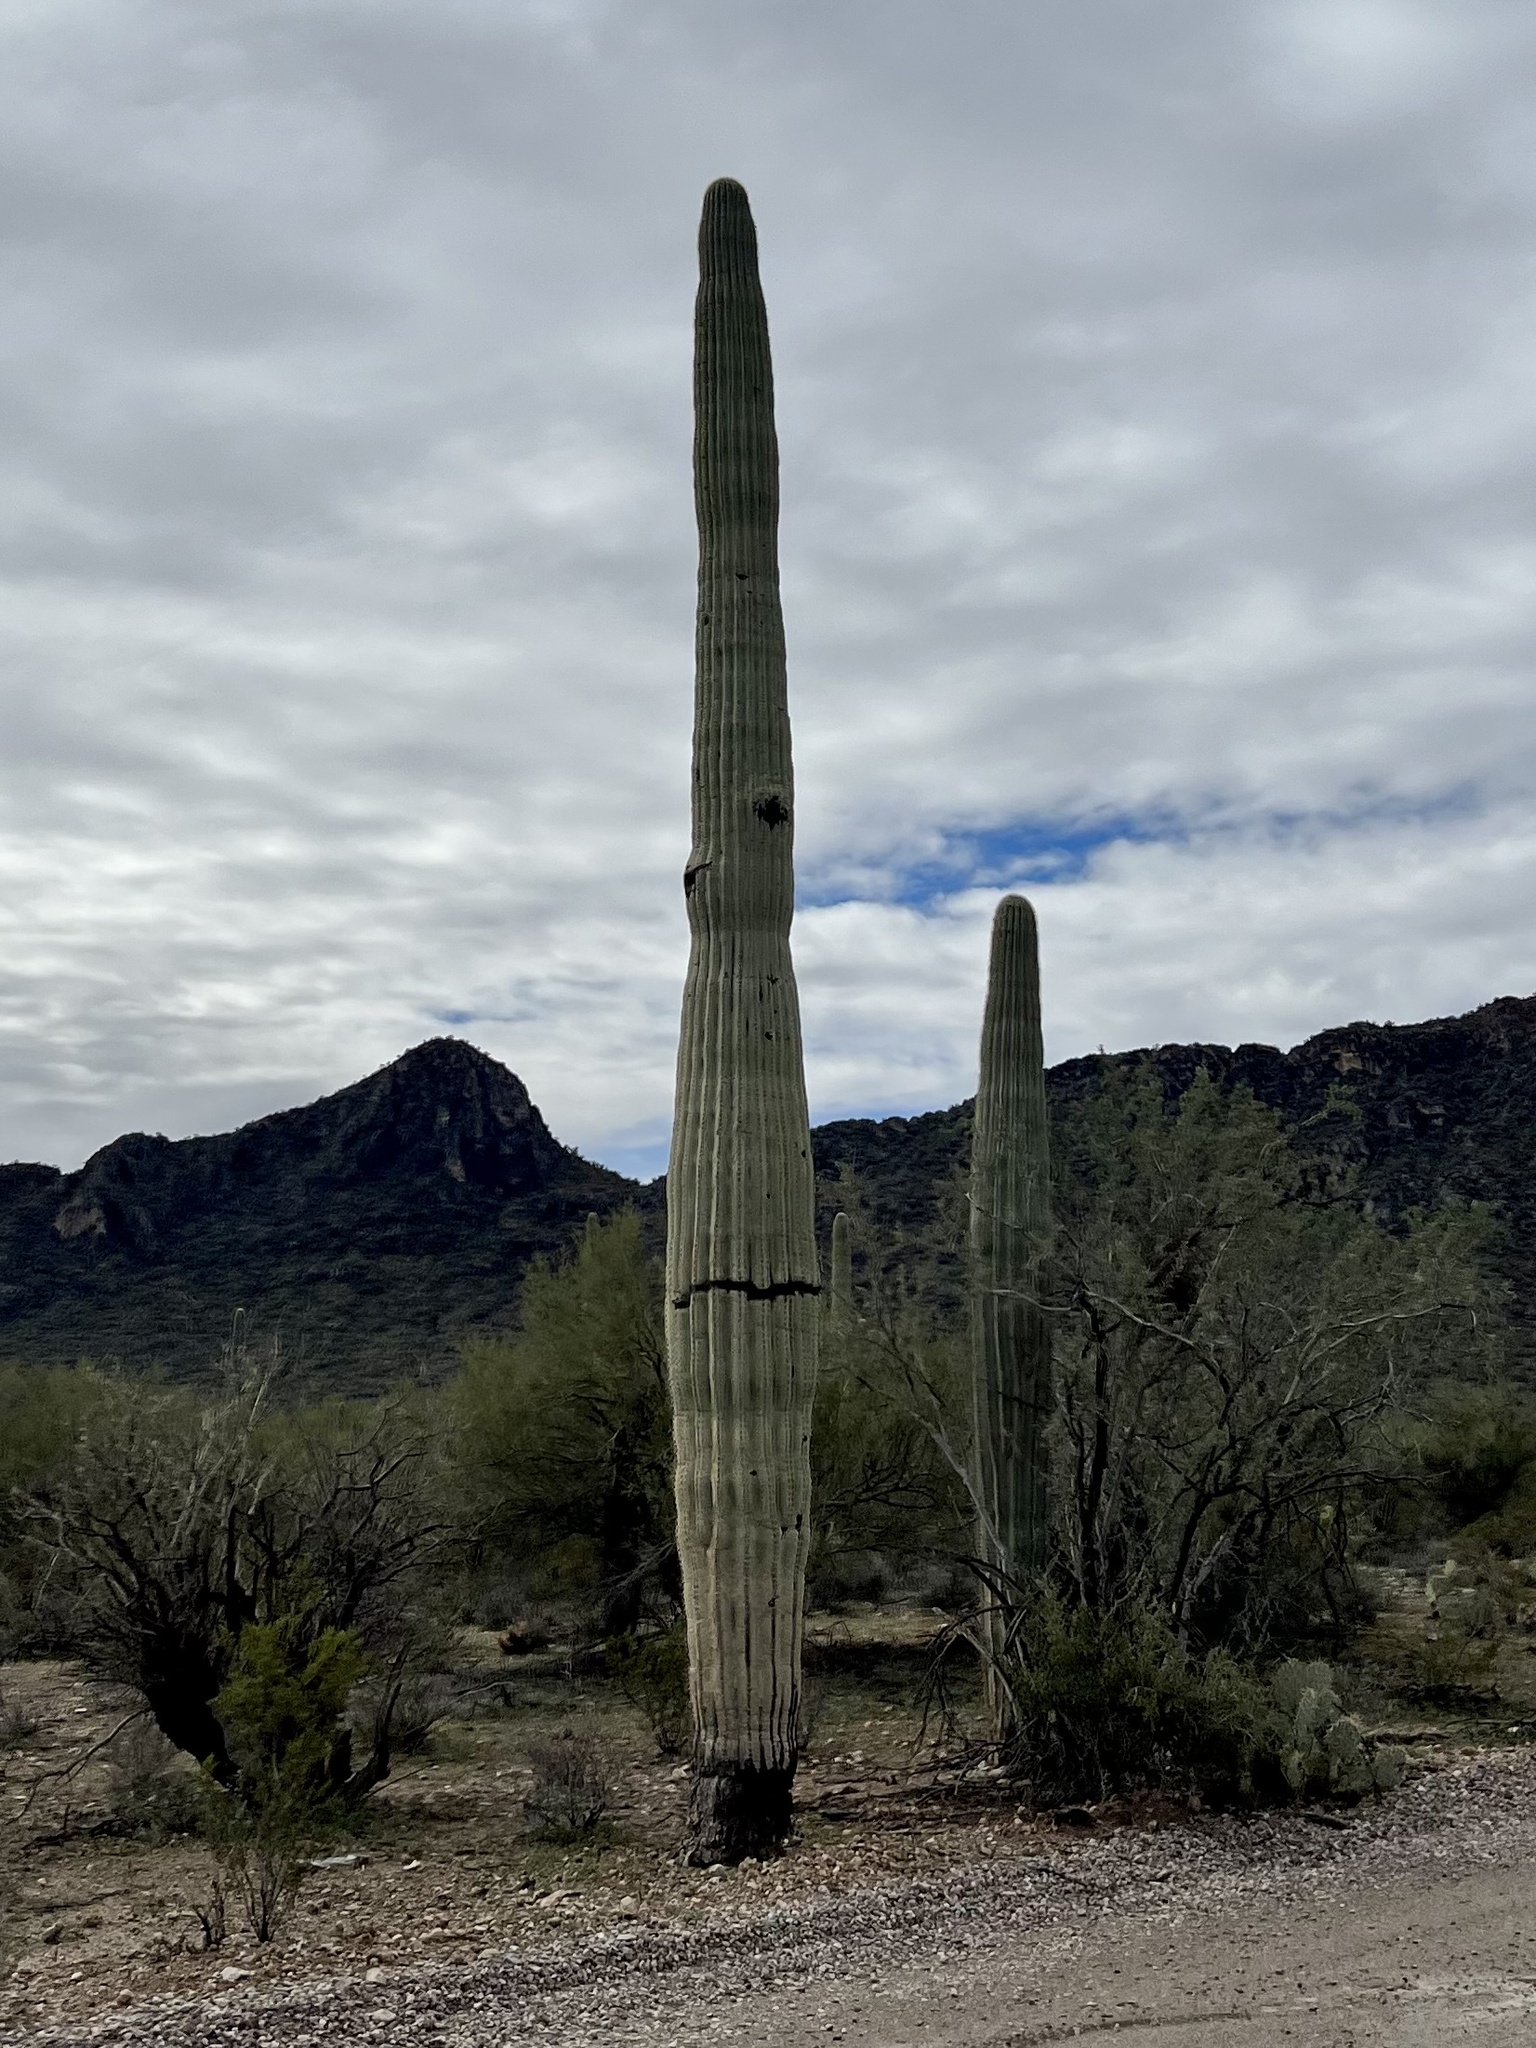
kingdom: Plantae
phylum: Tracheophyta
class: Magnoliopsida
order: Caryophyllales
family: Cactaceae
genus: Carnegiea
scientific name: Carnegiea gigantea
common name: Saguaro
